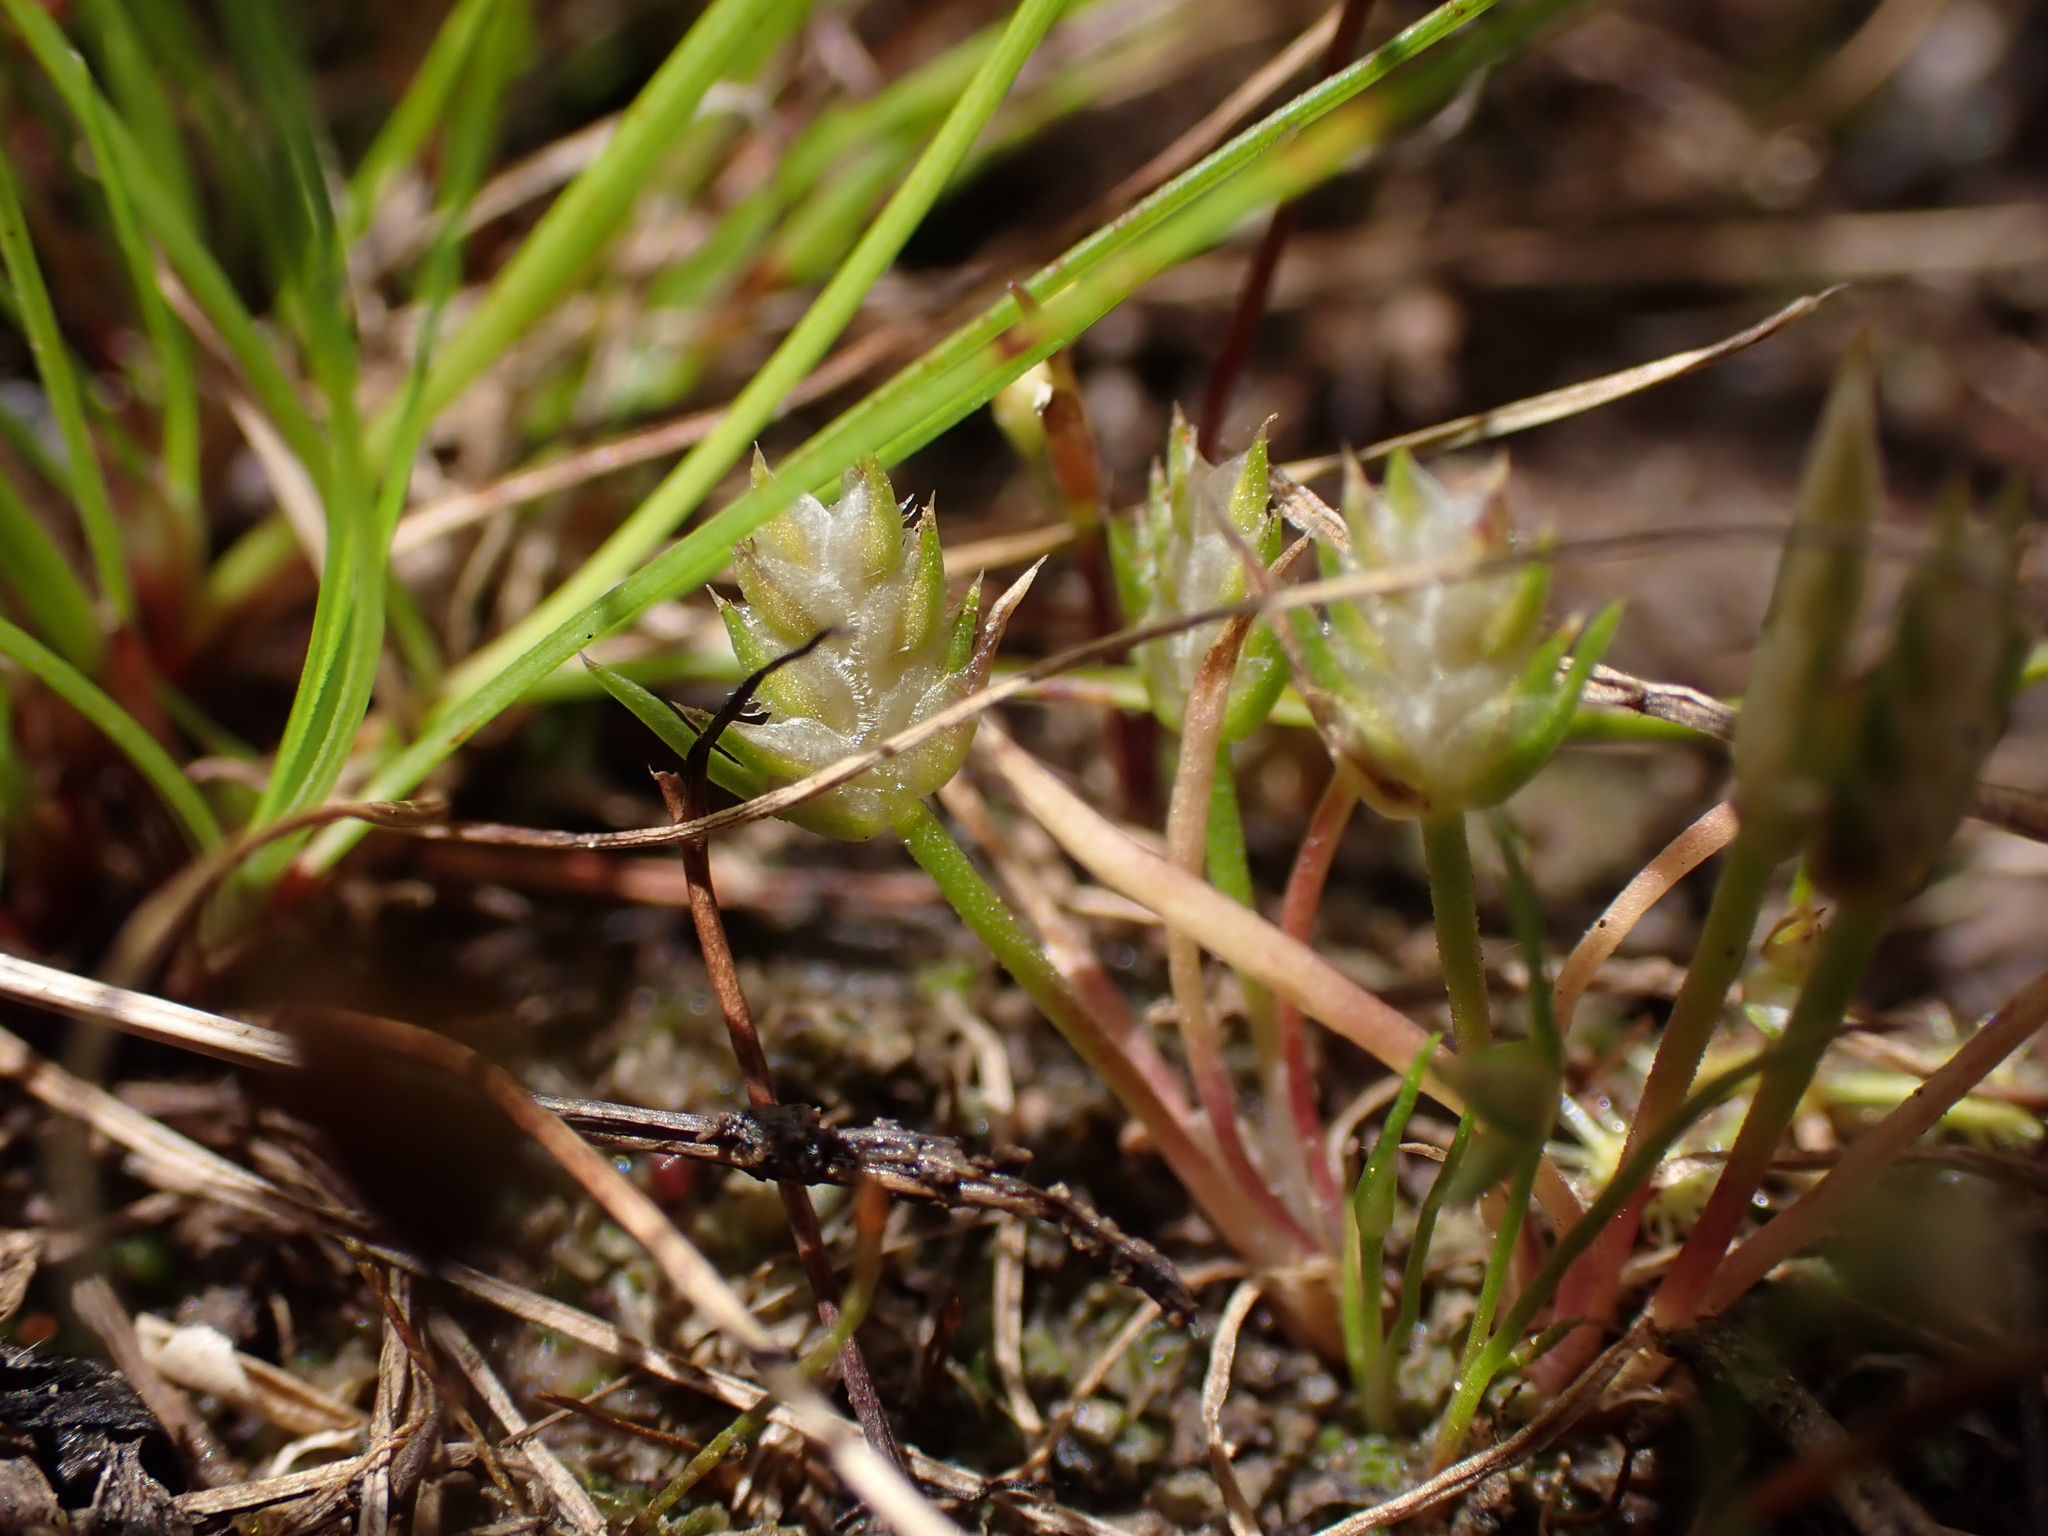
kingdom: Plantae
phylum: Tracheophyta
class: Liliopsida
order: Poales
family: Restionaceae
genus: Aphelia
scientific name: Aphelia pumilio
